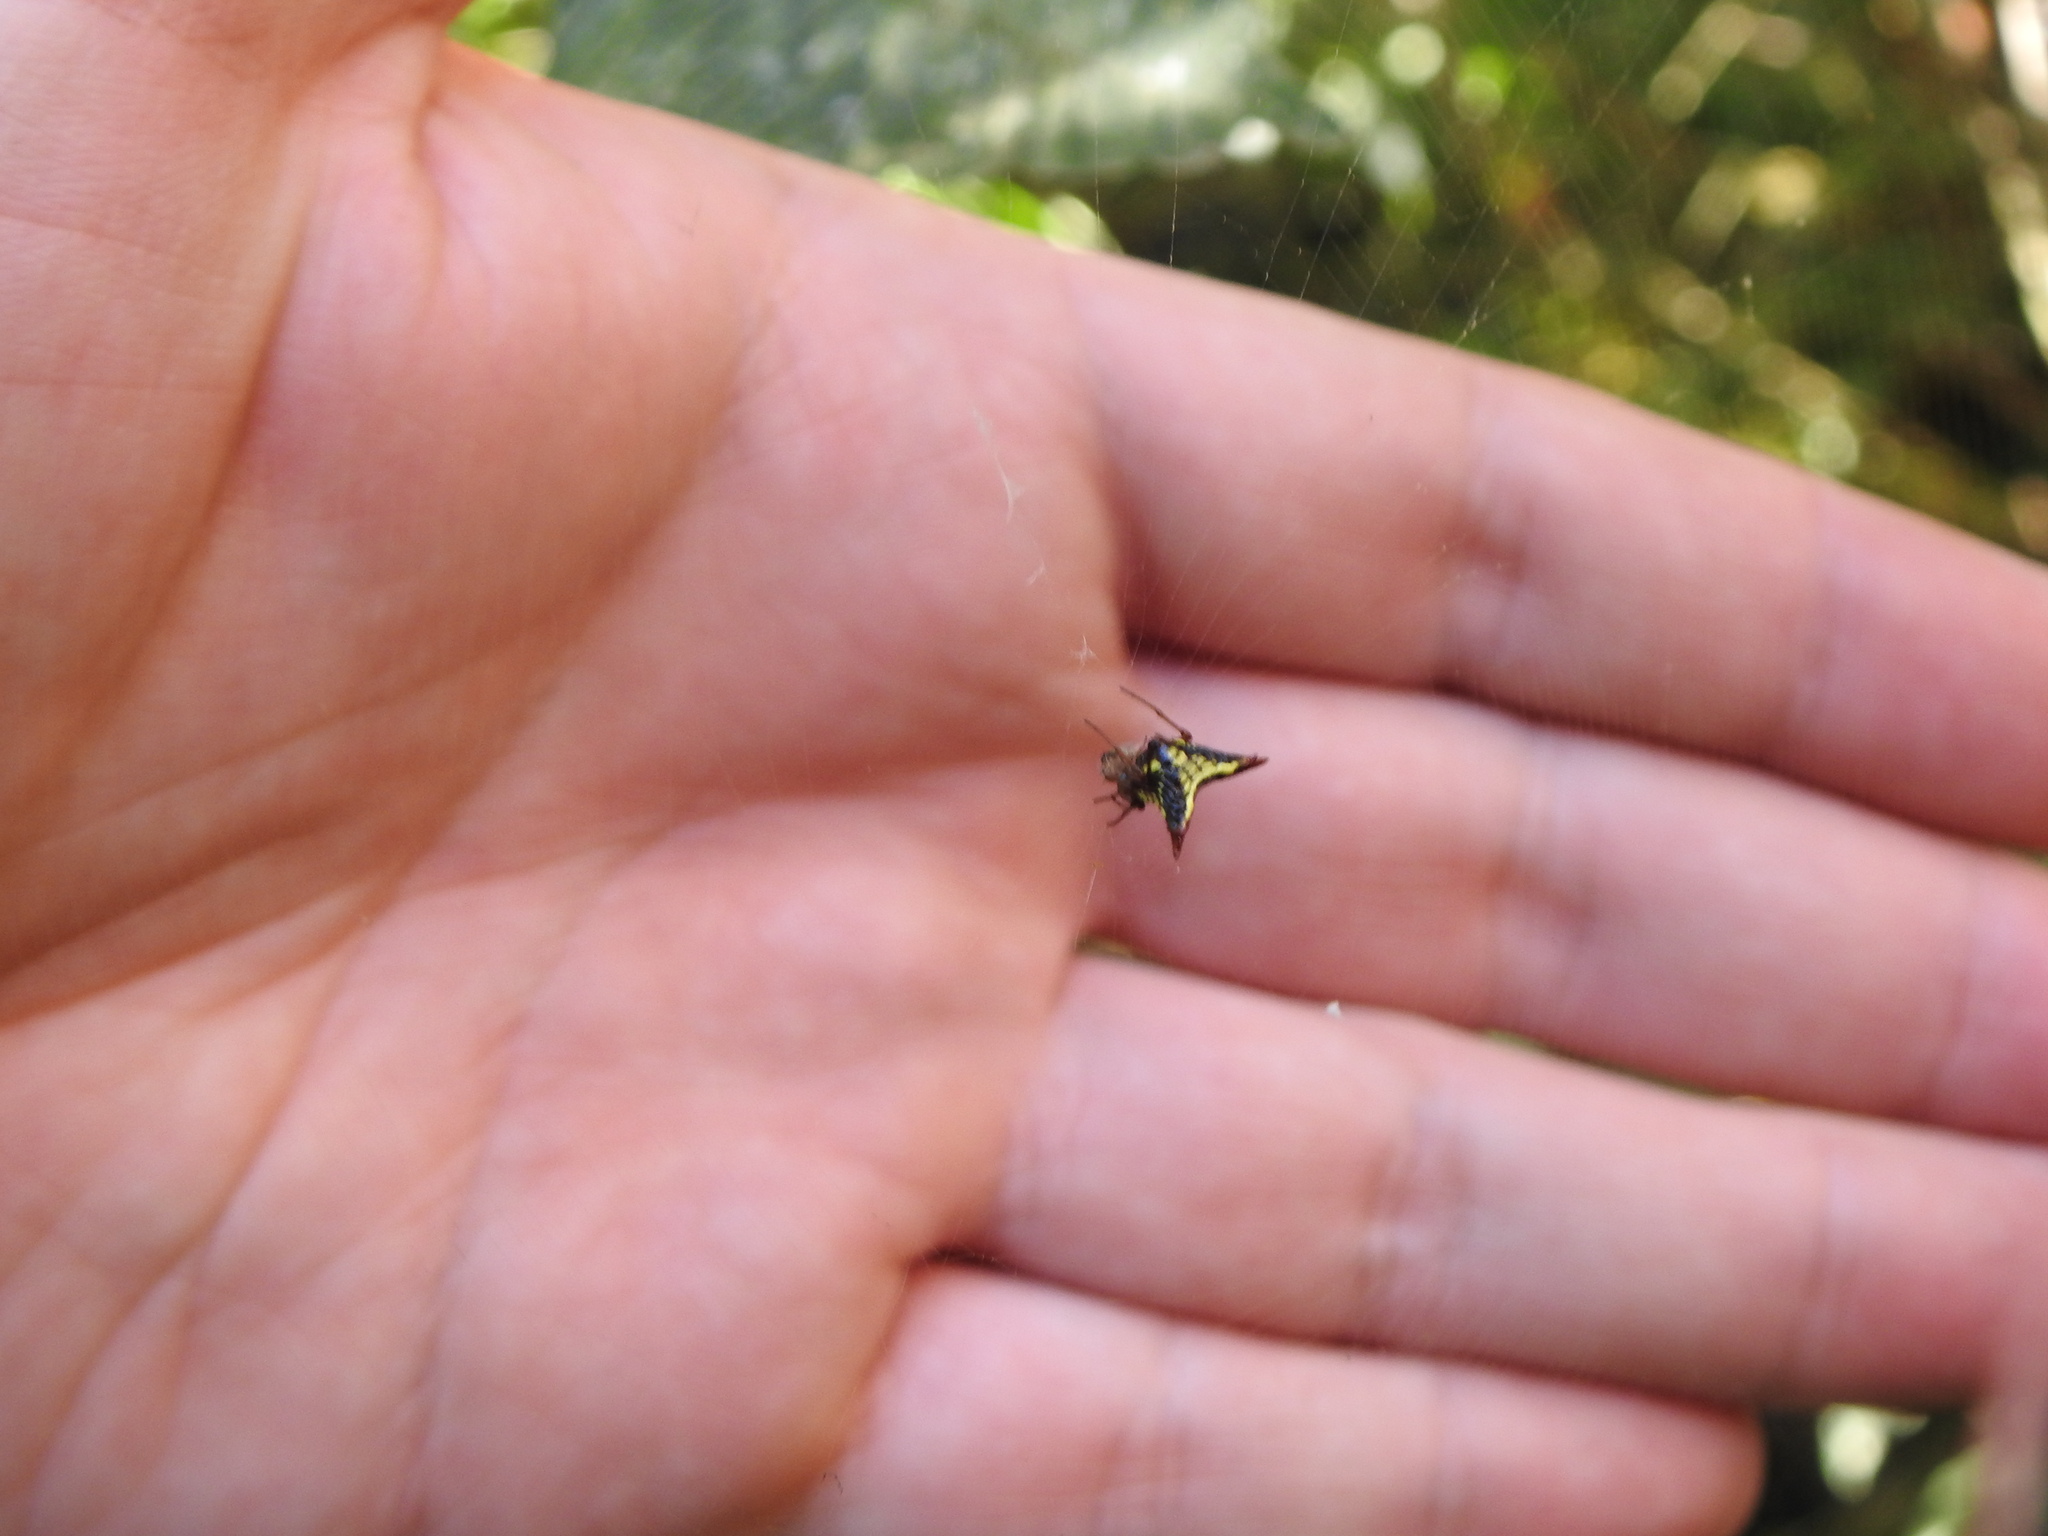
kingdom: Animalia
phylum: Arthropoda
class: Arachnida
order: Araneae
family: Araneidae
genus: Micrathena
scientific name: Micrathena plana
